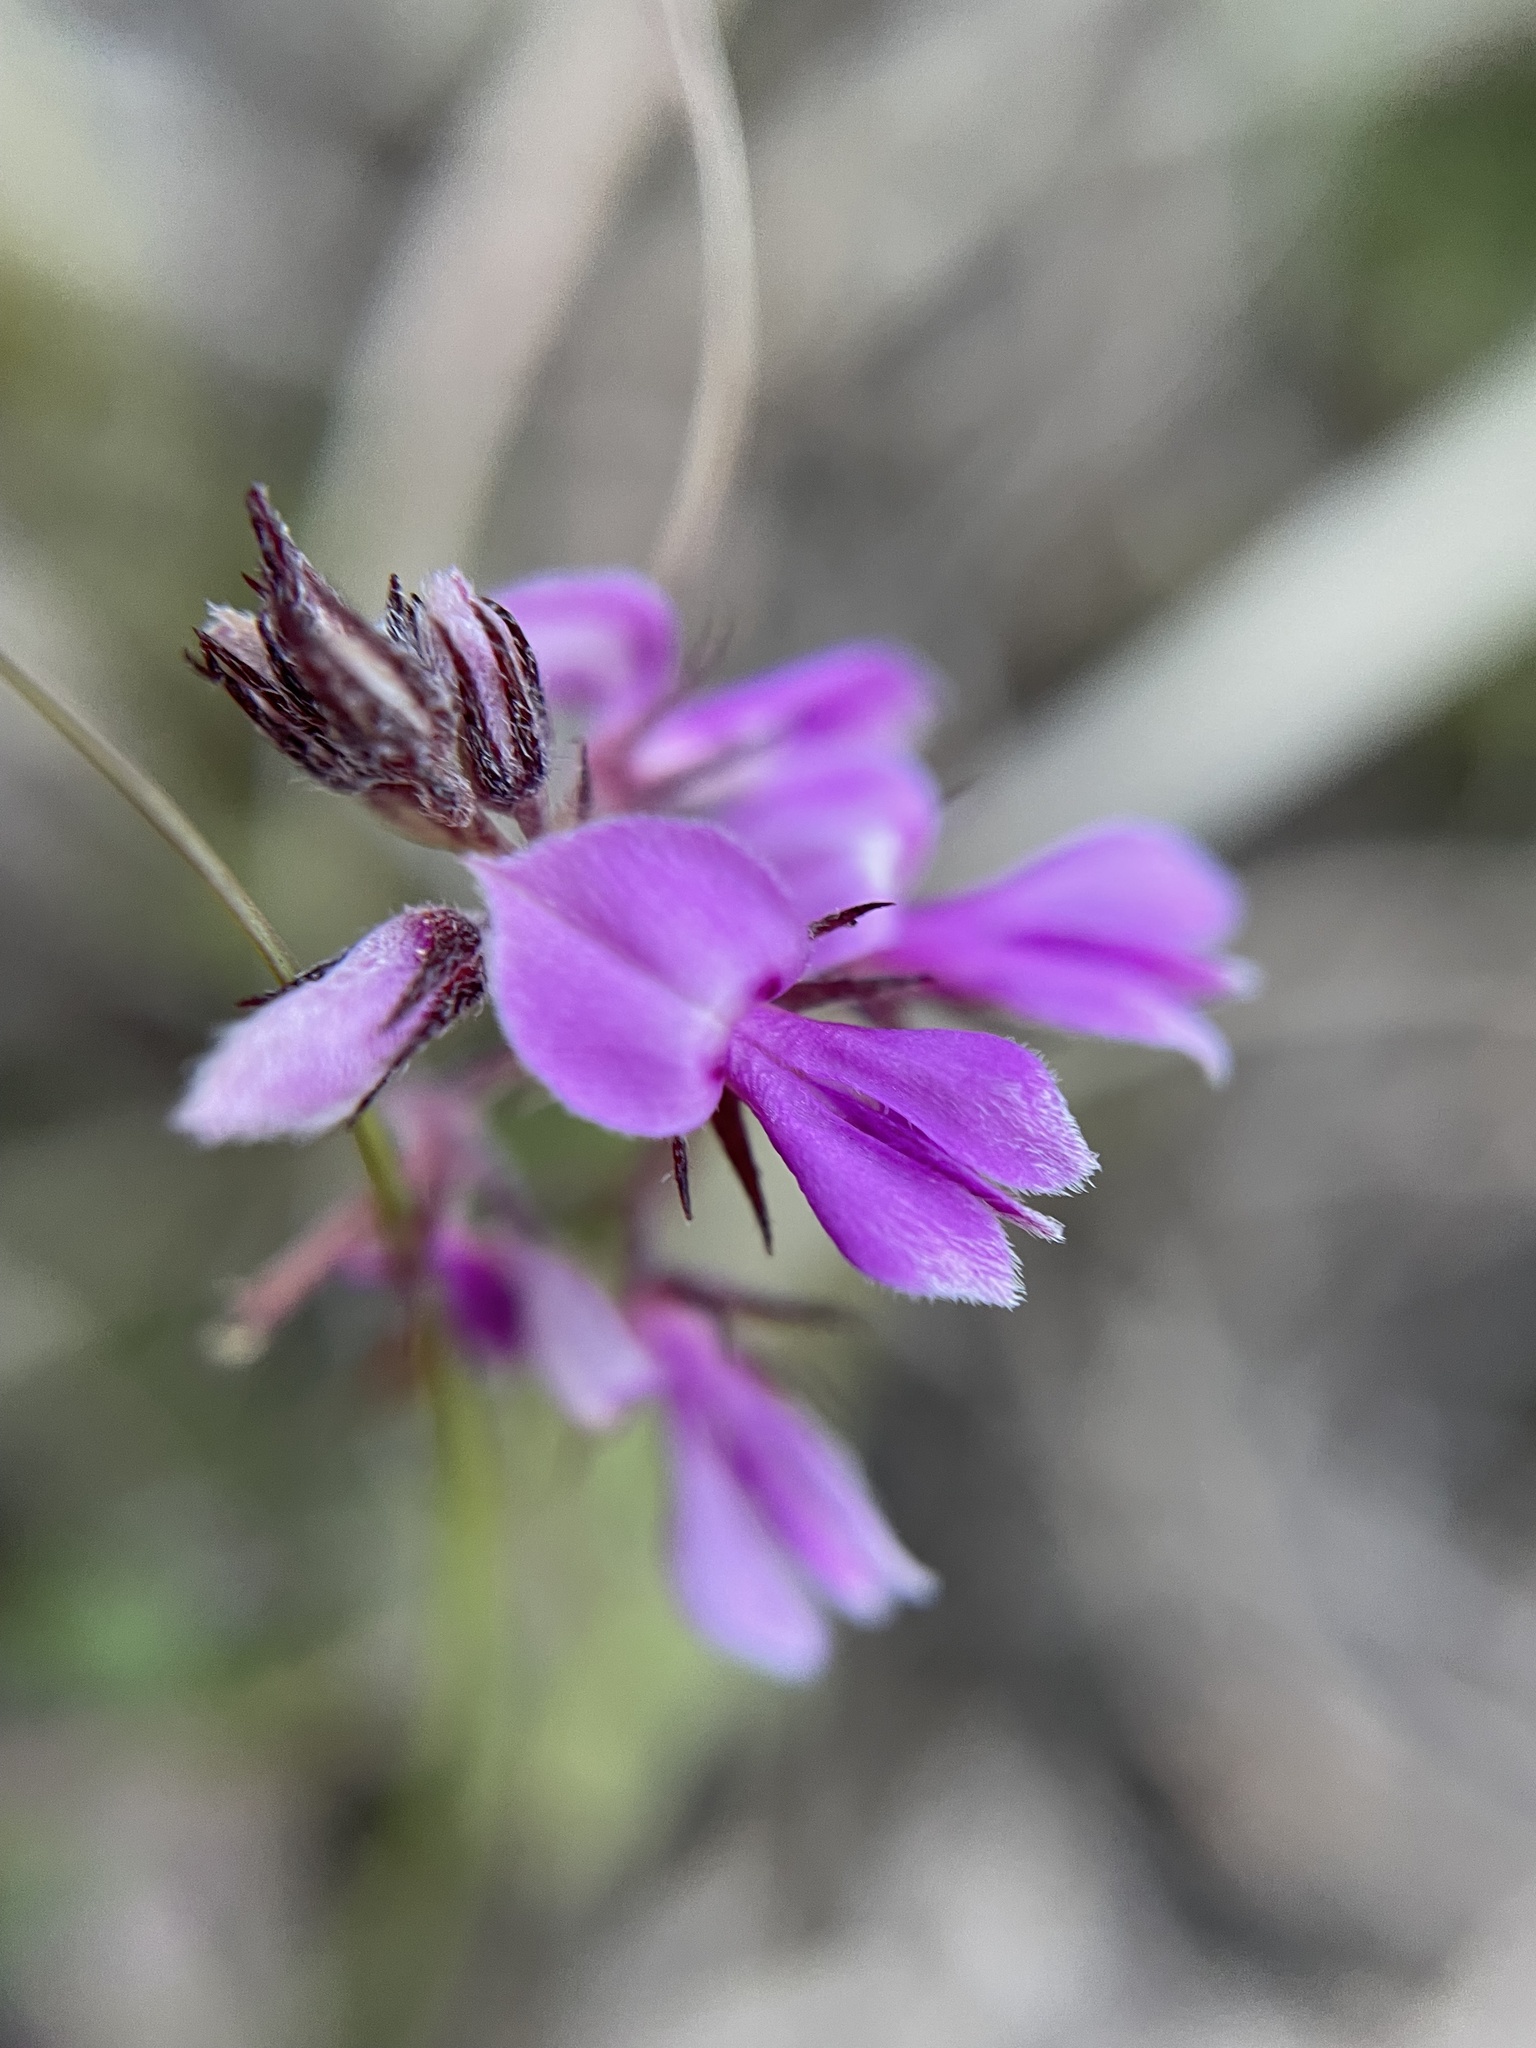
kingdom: Plantae
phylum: Tracheophyta
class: Magnoliopsida
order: Fabales
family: Fabaceae
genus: Indigofera
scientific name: Indigofera filiformis
